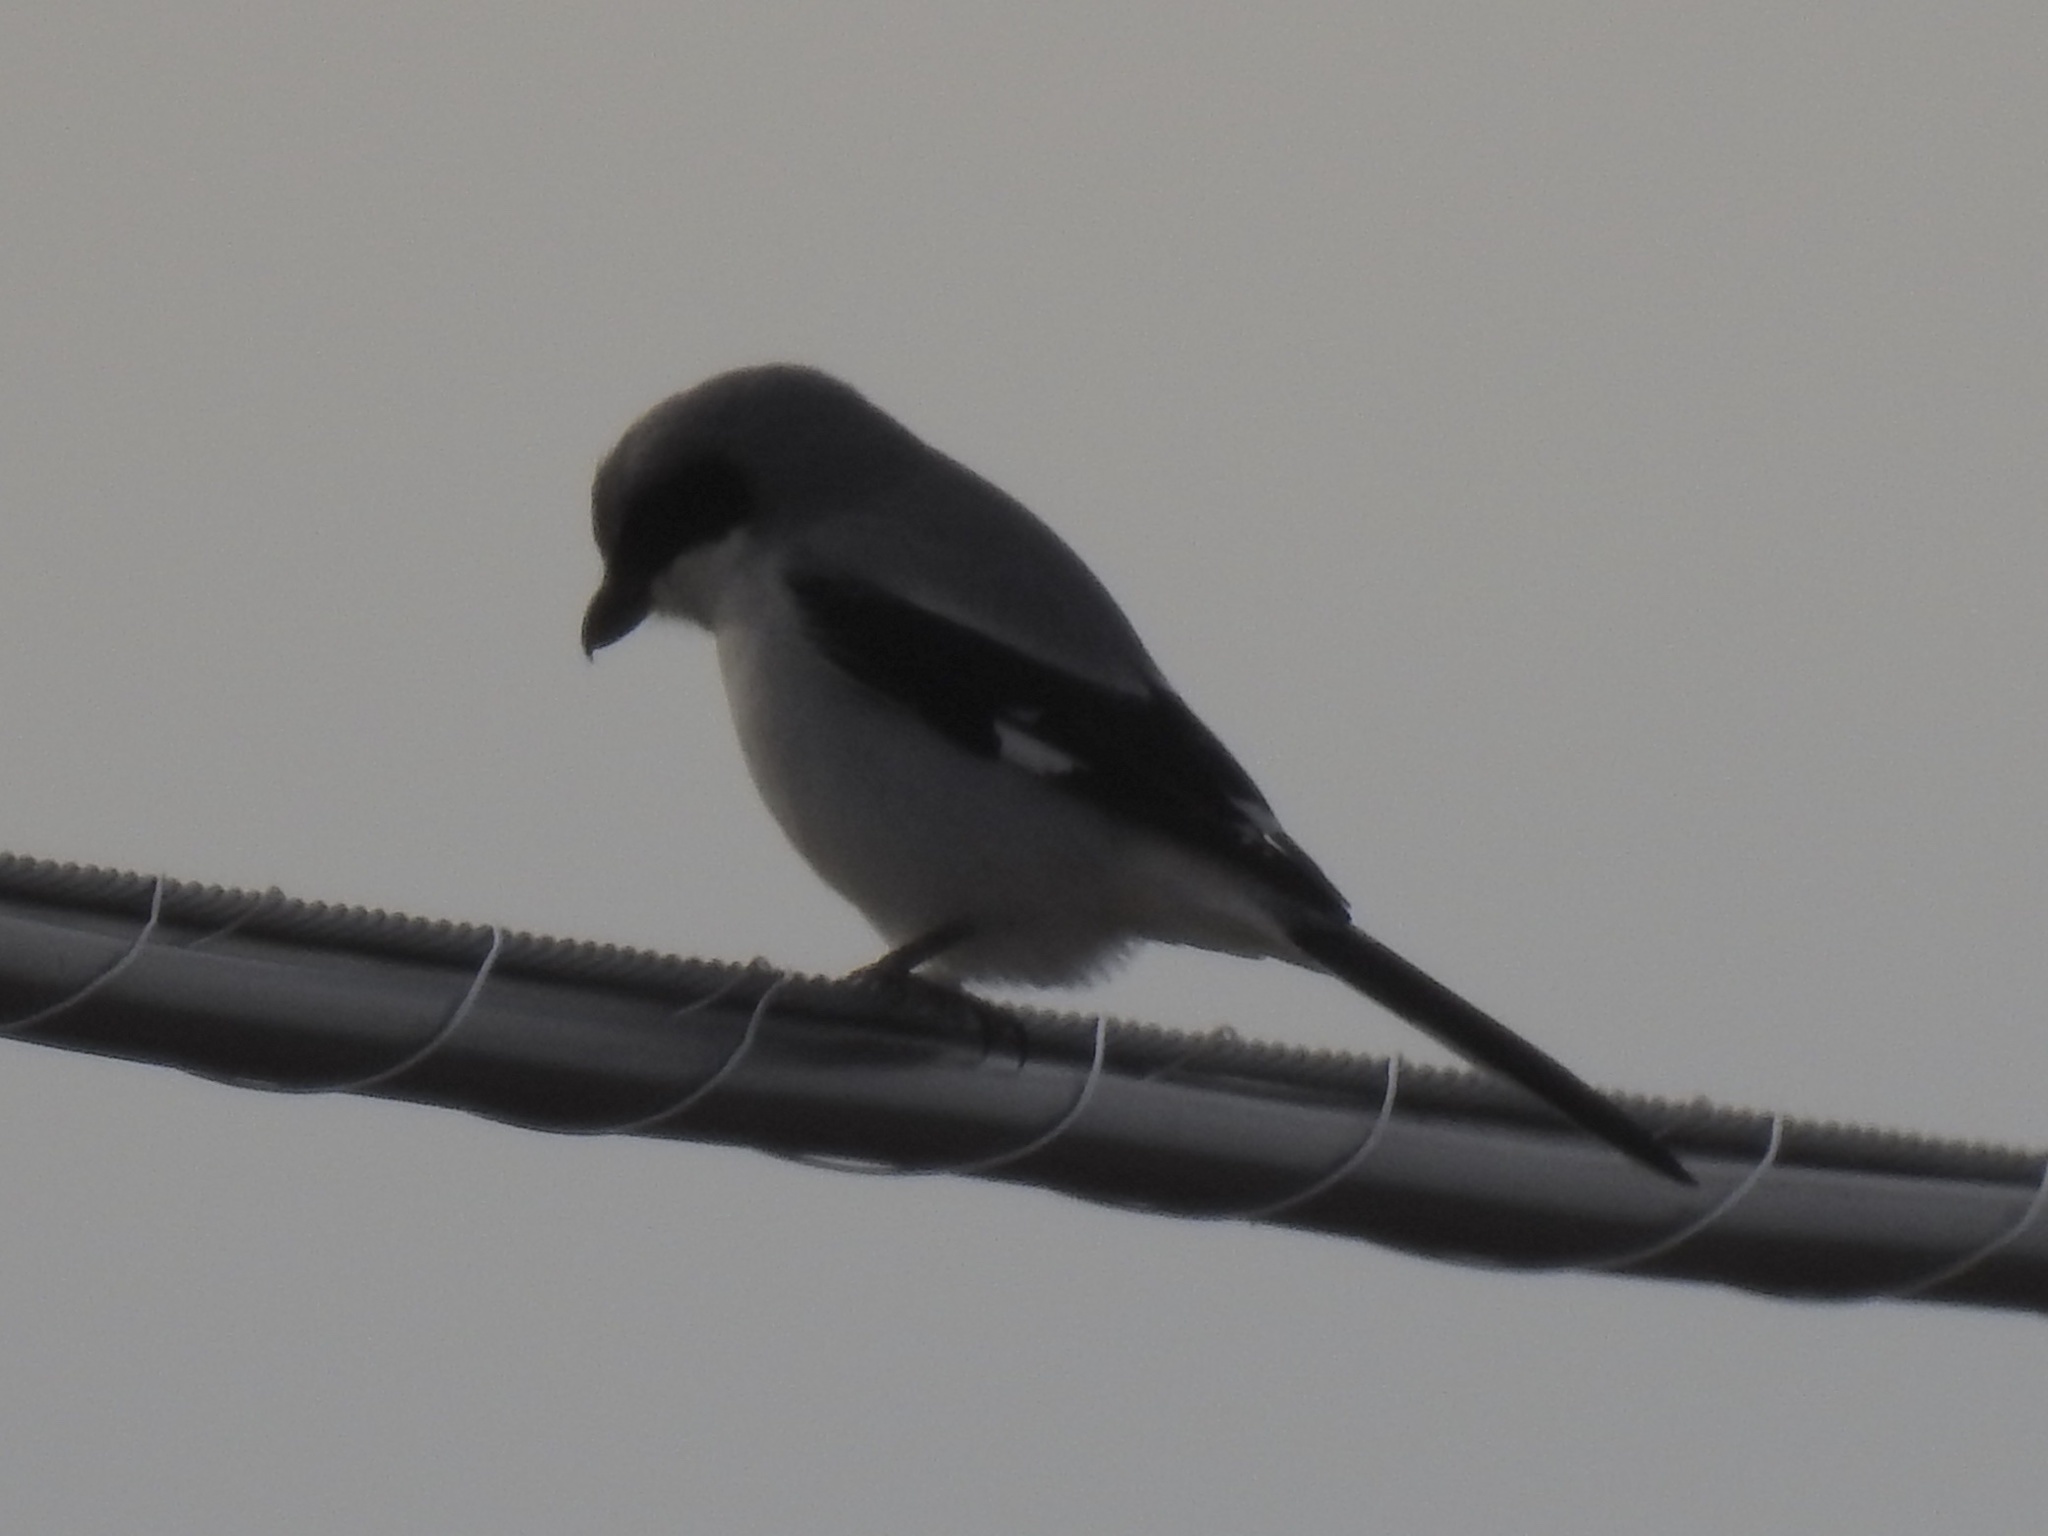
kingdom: Animalia
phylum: Chordata
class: Aves
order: Passeriformes
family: Laniidae
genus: Lanius
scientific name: Lanius ludovicianus
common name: Loggerhead shrike
